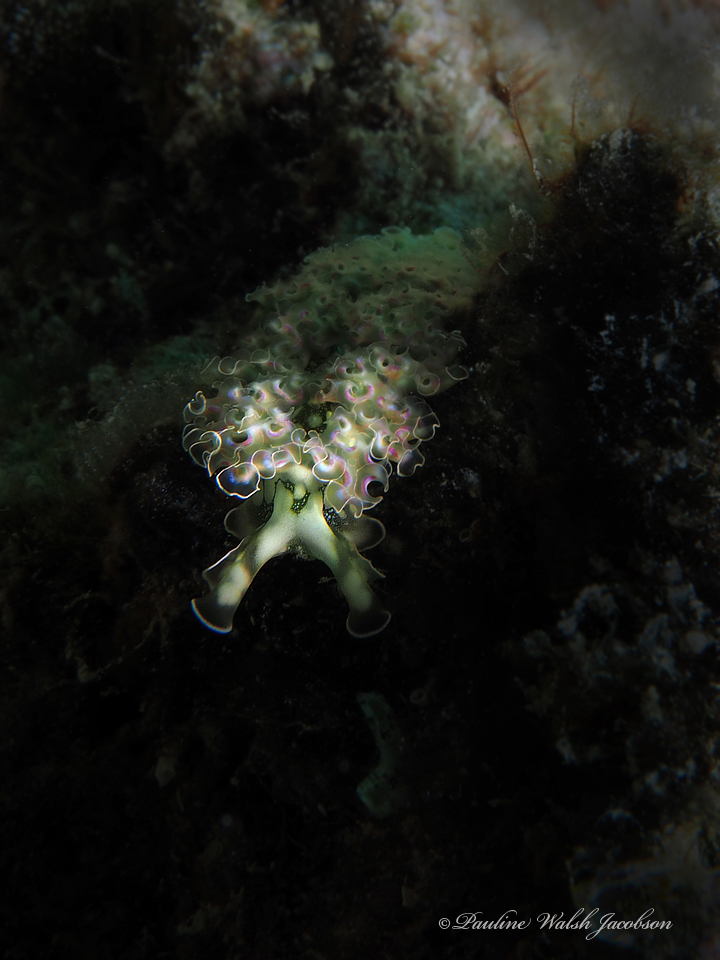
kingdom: Animalia
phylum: Mollusca
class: Gastropoda
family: Plakobranchidae
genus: Elysia
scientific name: Elysia crispata
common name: Lettuce slug
